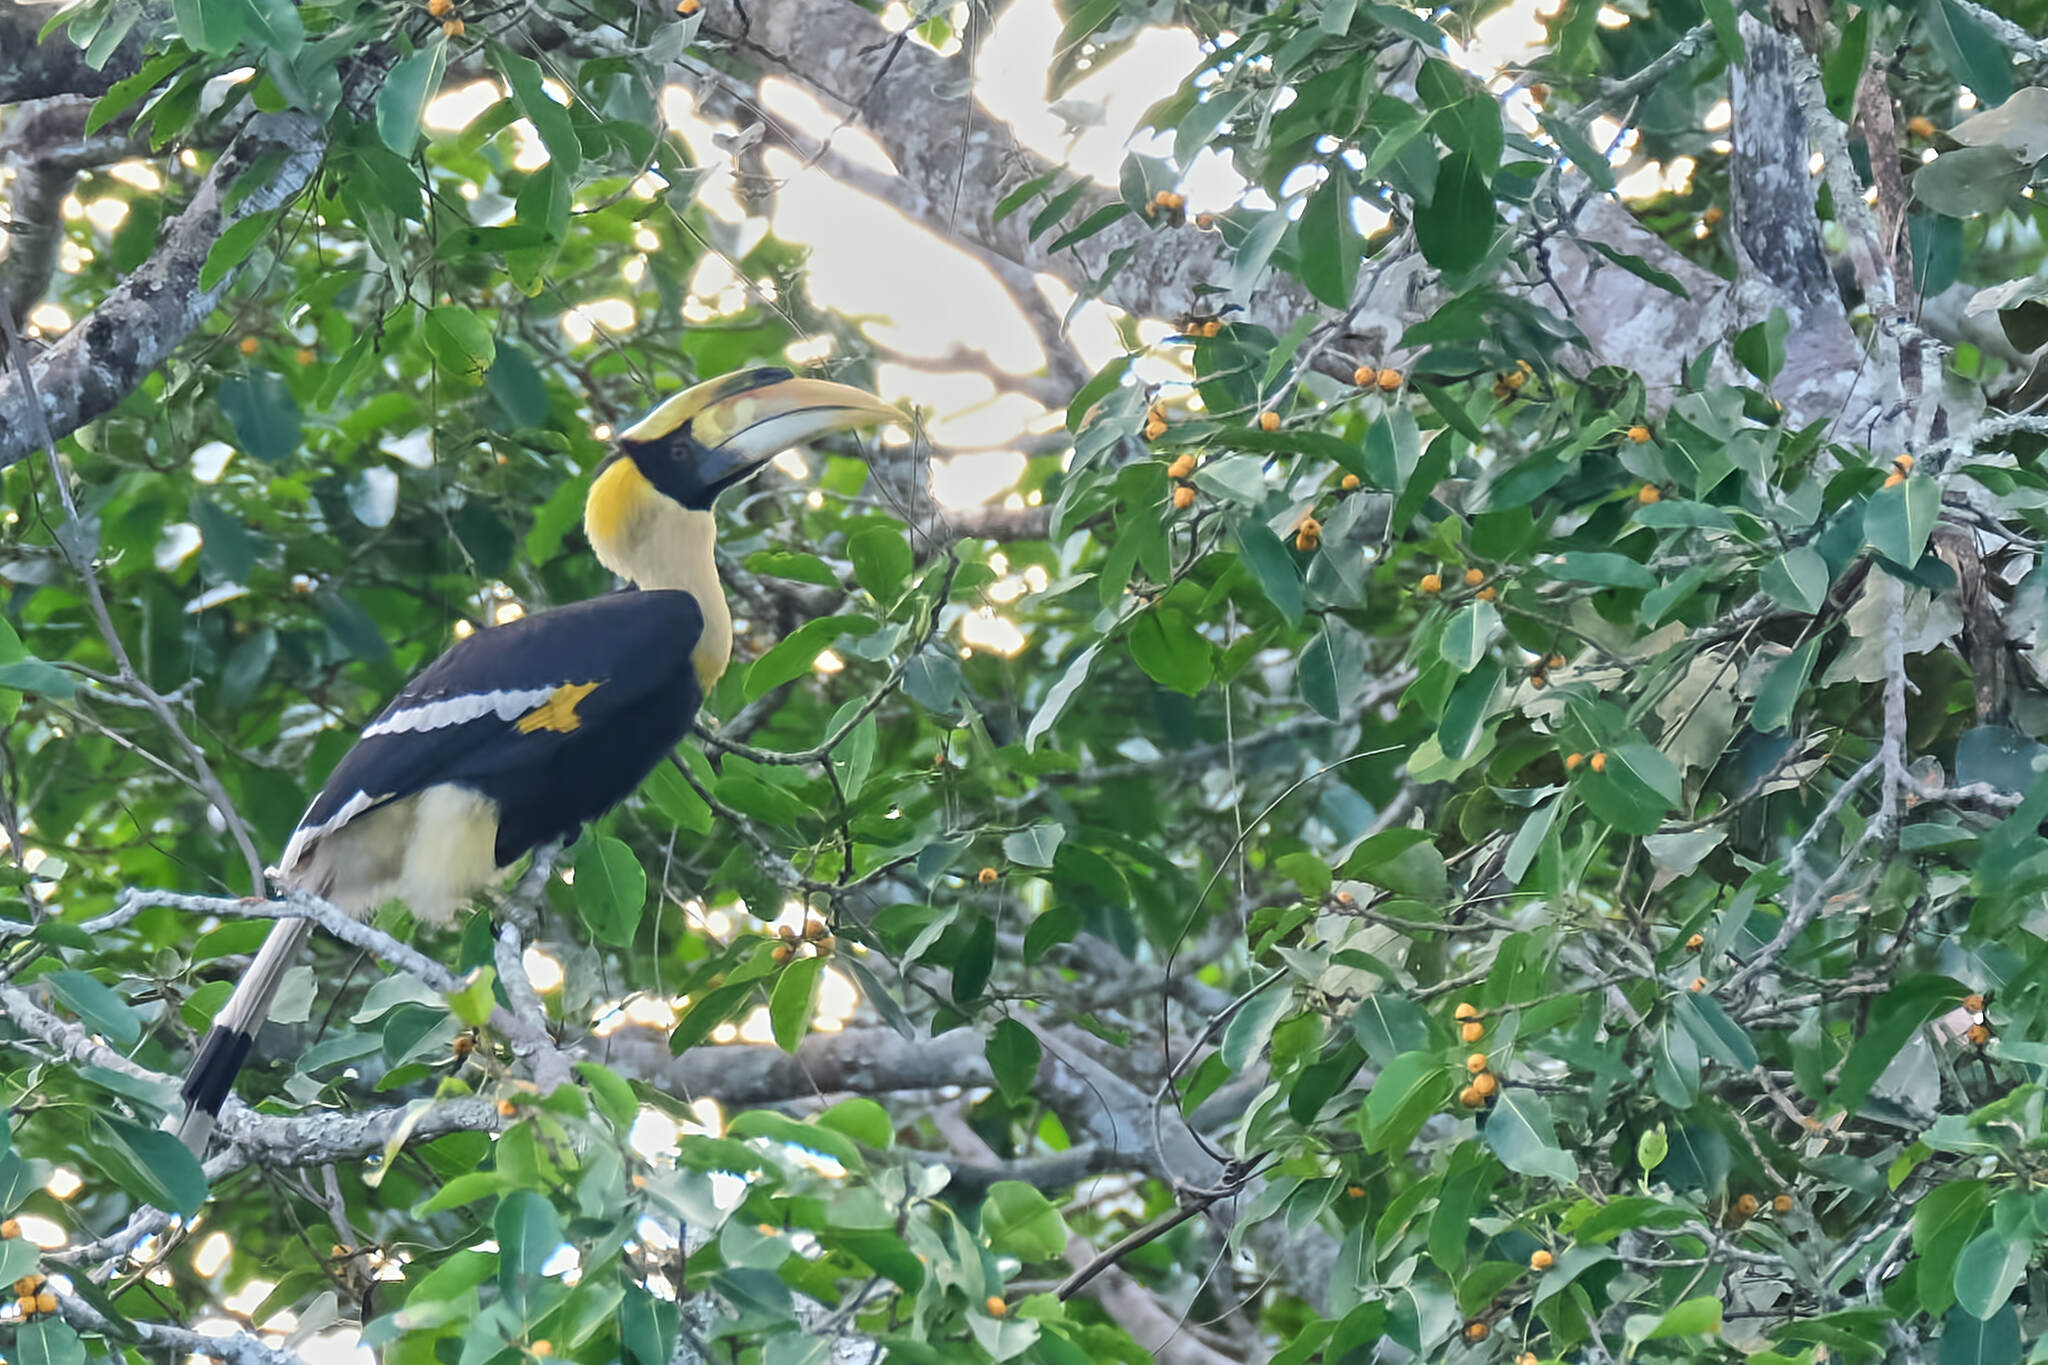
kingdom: Animalia
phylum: Chordata
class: Aves
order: Bucerotiformes
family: Bucerotidae
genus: Buceros
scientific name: Buceros bicornis
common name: Great hornbill
